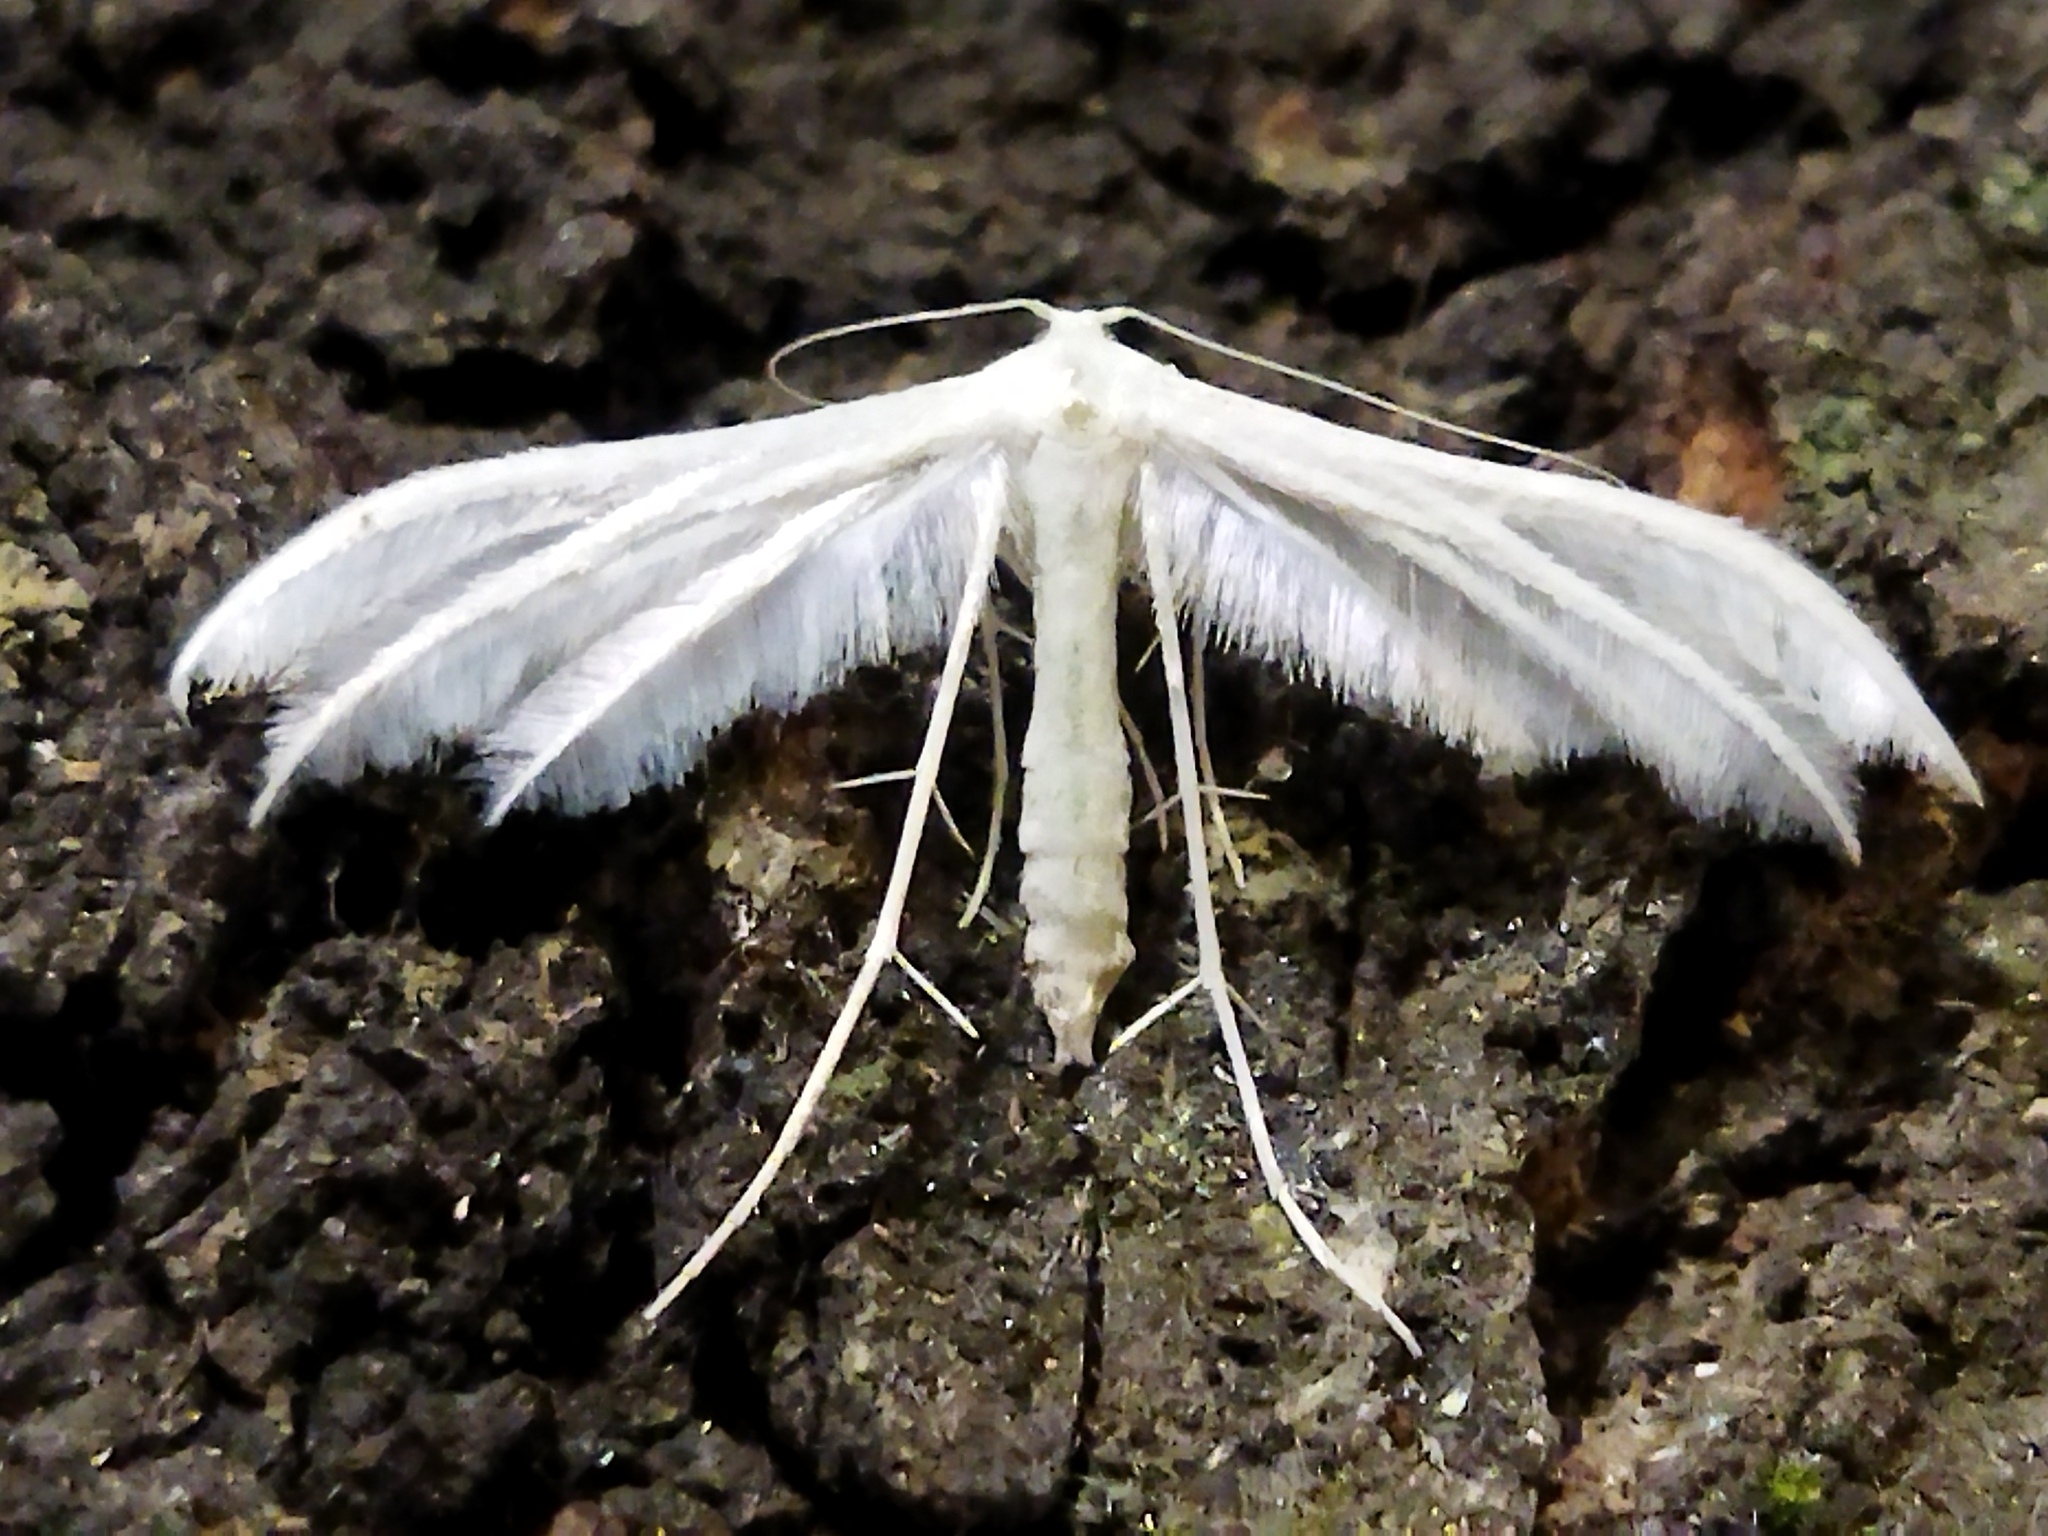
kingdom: Animalia
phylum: Arthropoda
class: Insecta
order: Lepidoptera
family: Pterophoridae
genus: Pterophorus
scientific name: Pterophorus pentadactyla
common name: White plume moth
